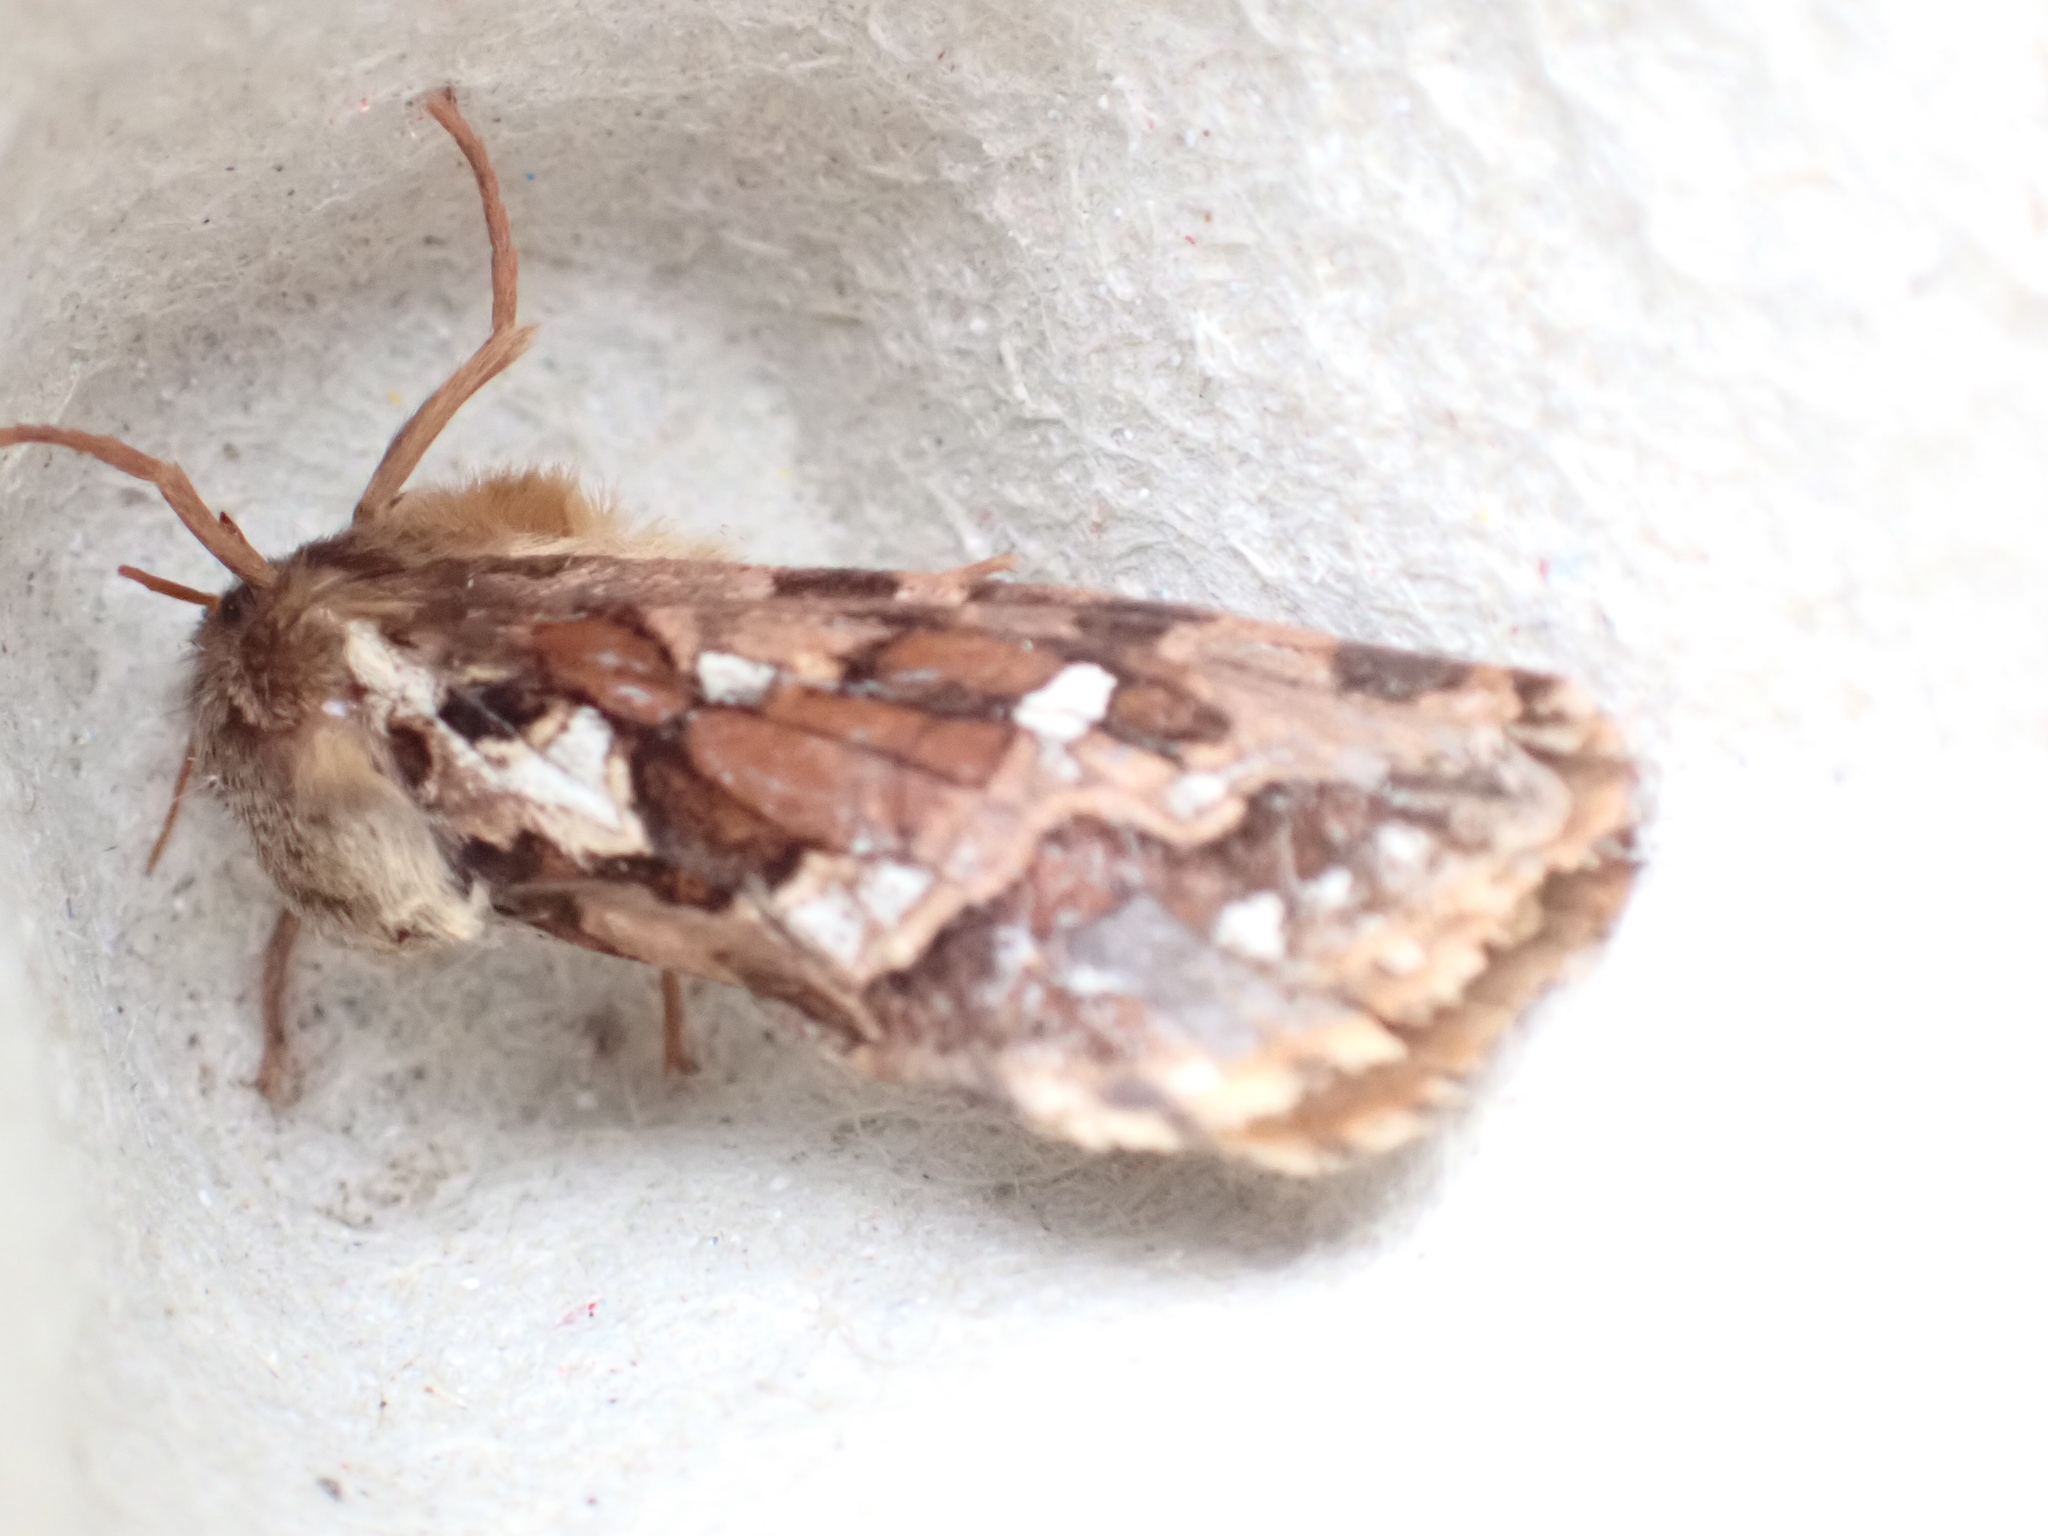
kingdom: Animalia
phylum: Arthropoda
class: Insecta
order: Lepidoptera
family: Hepialidae
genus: Korscheltellus
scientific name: Korscheltellus fusconebulosus
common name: Map-winged swift
